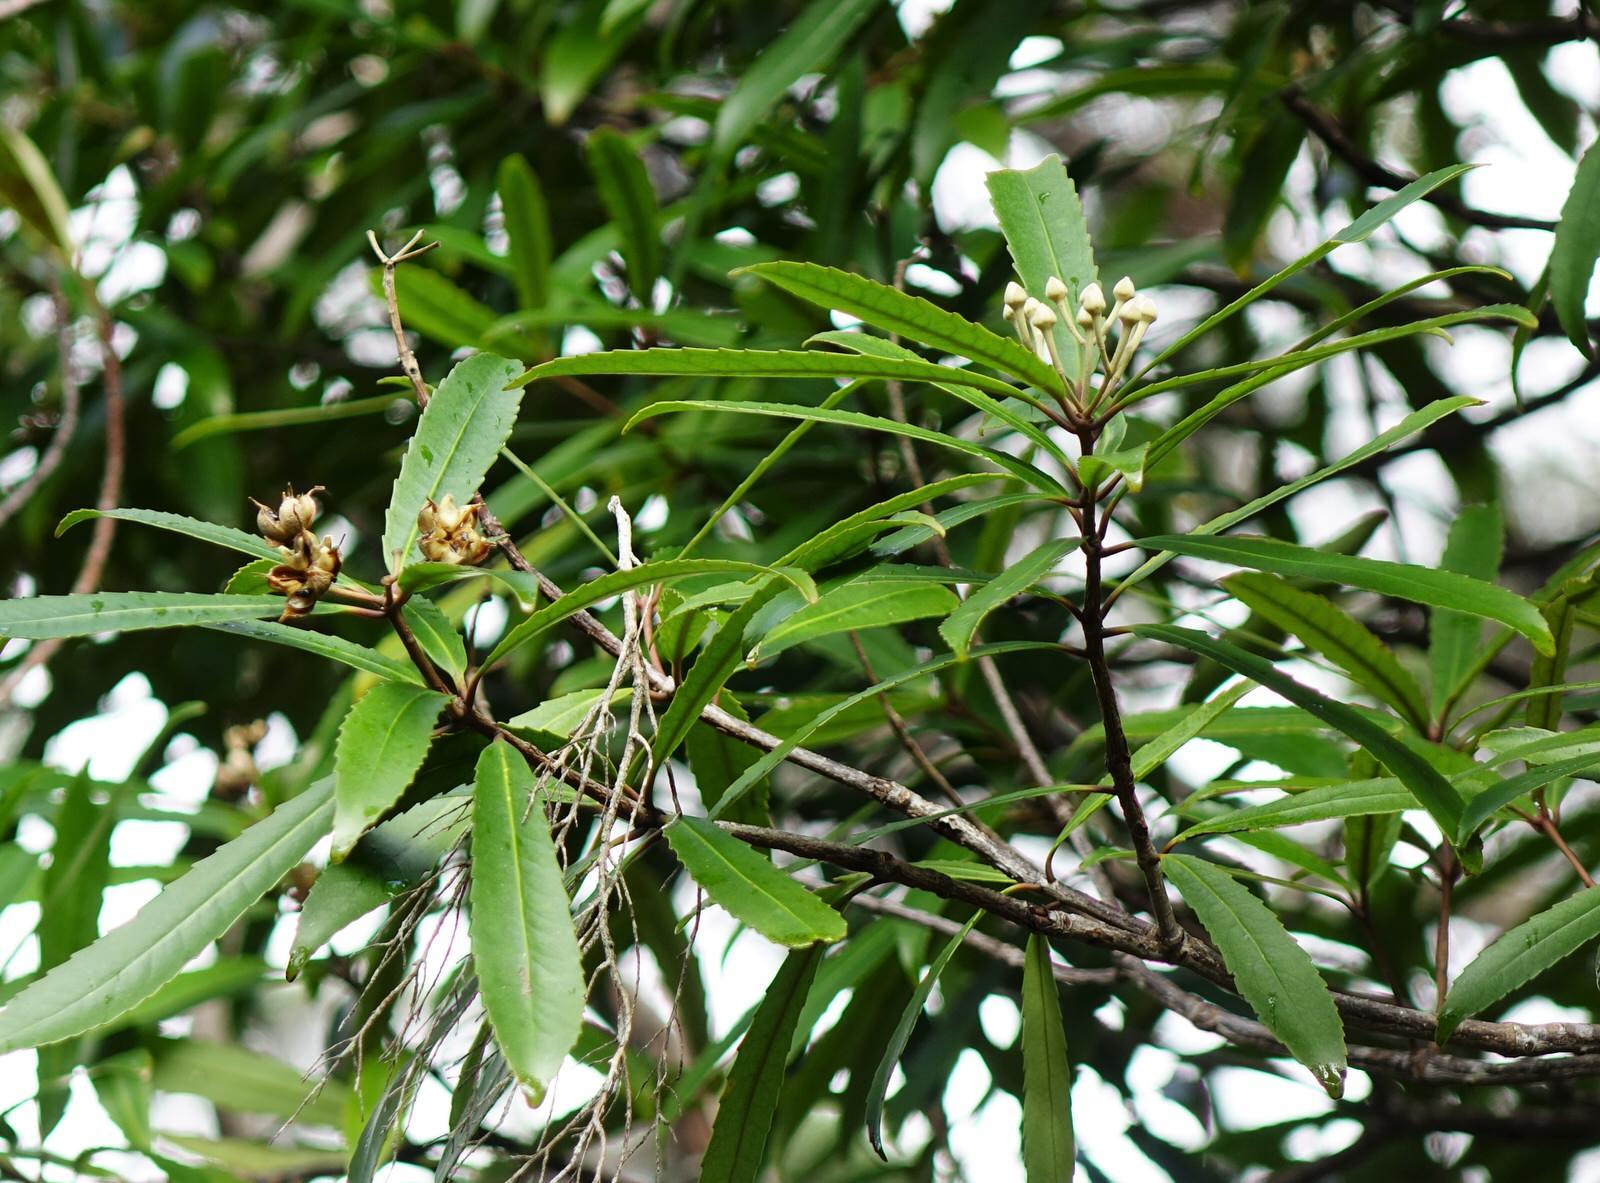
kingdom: Plantae
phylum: Tracheophyta
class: Magnoliopsida
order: Crossosomatales
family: Ixerbaceae
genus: Ixerba
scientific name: Ixerba brexioides
